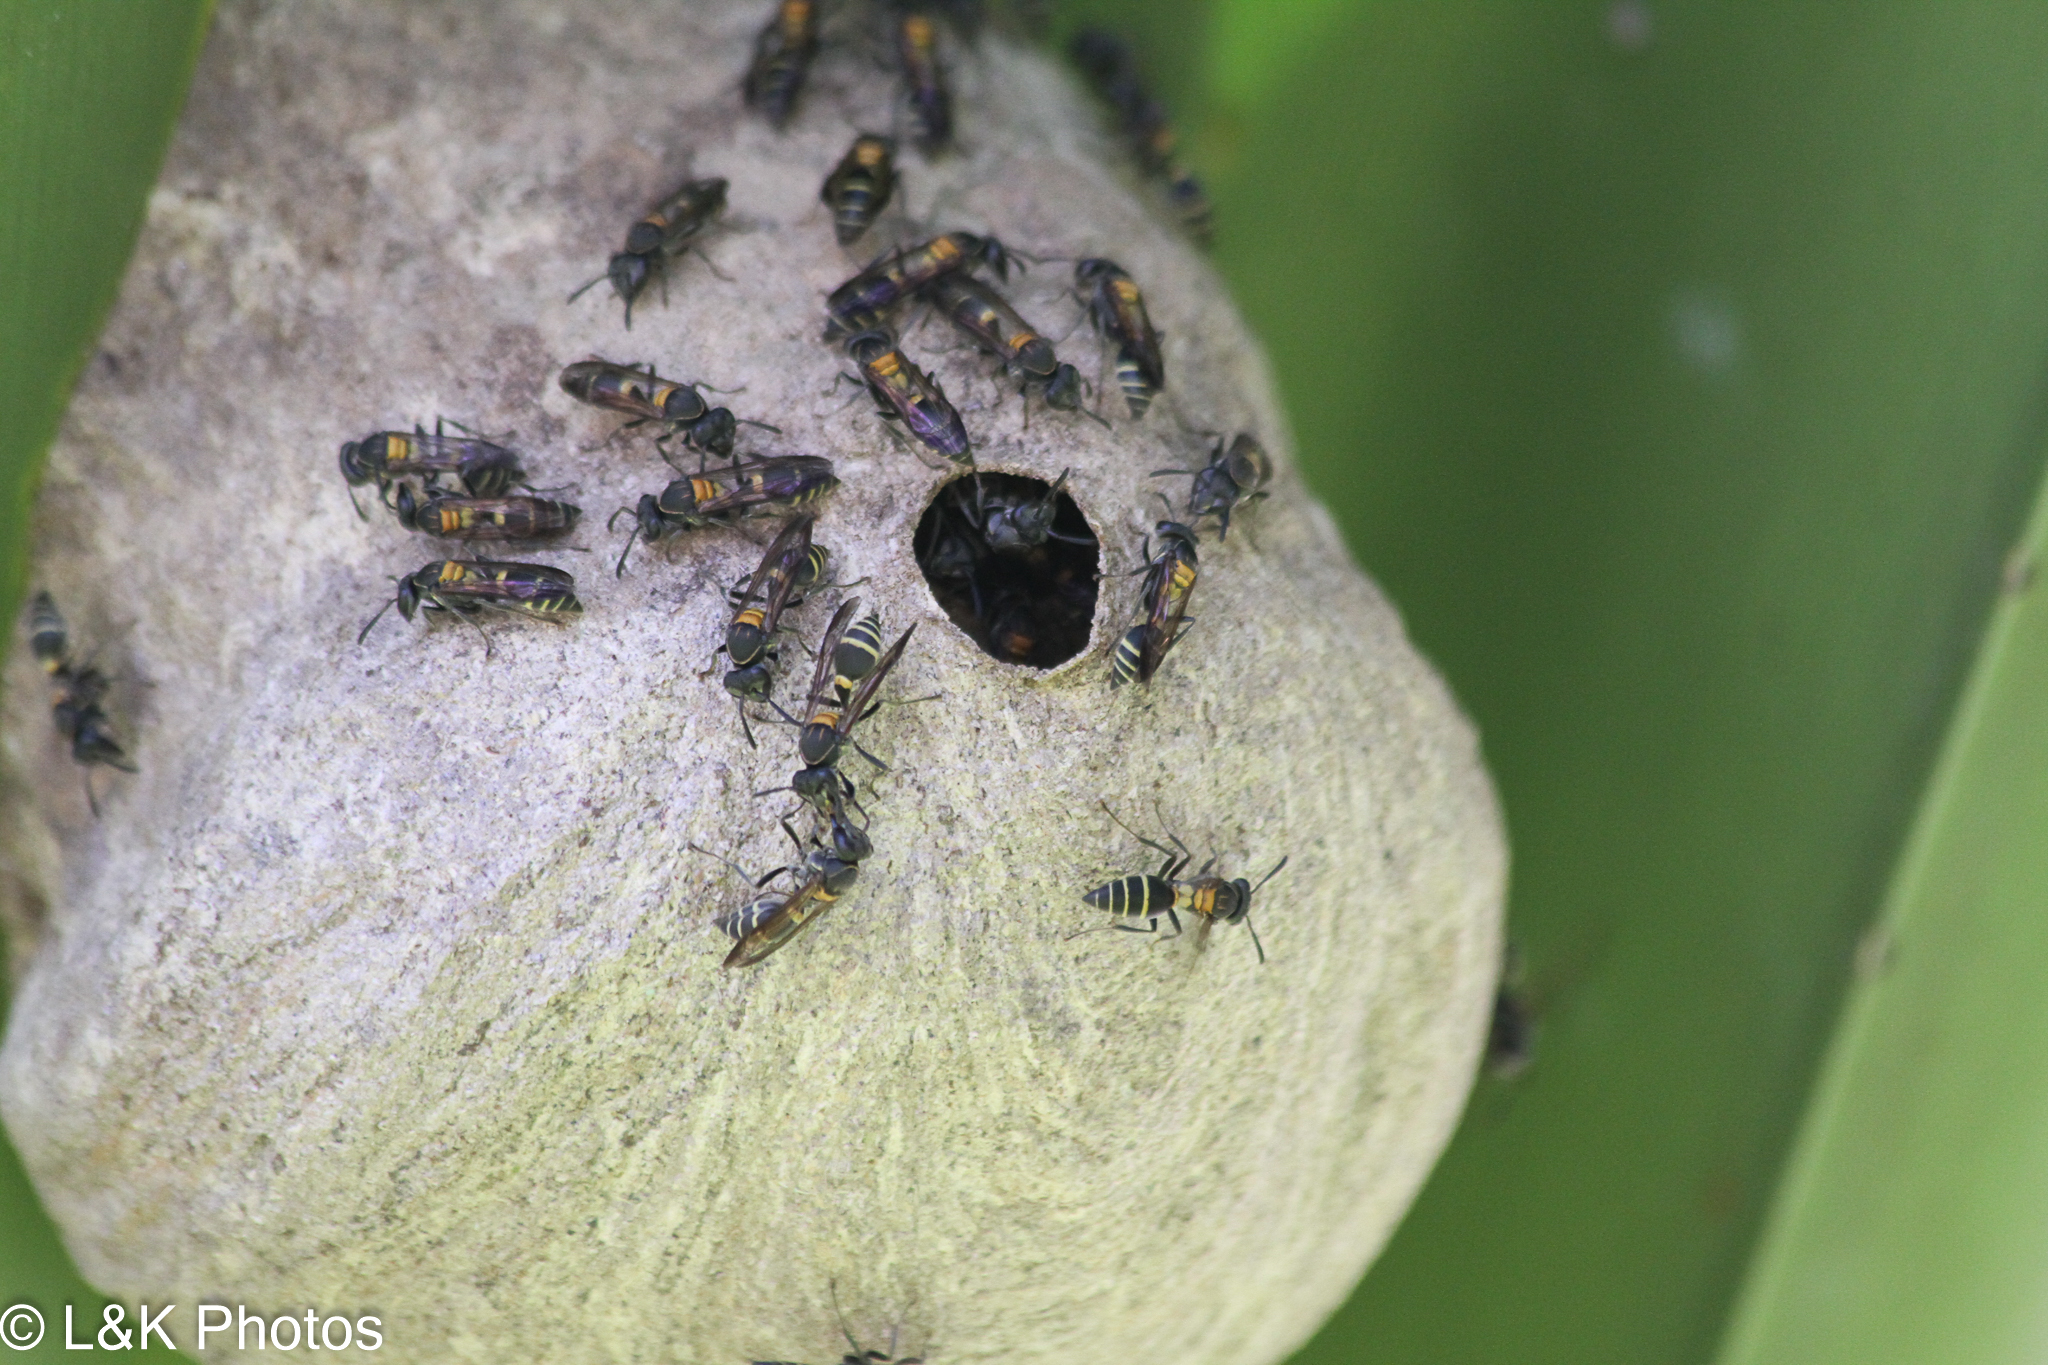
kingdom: Animalia
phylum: Arthropoda
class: Insecta
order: Hymenoptera
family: Eumenidae
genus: Polybia
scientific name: Polybia occidentalis
